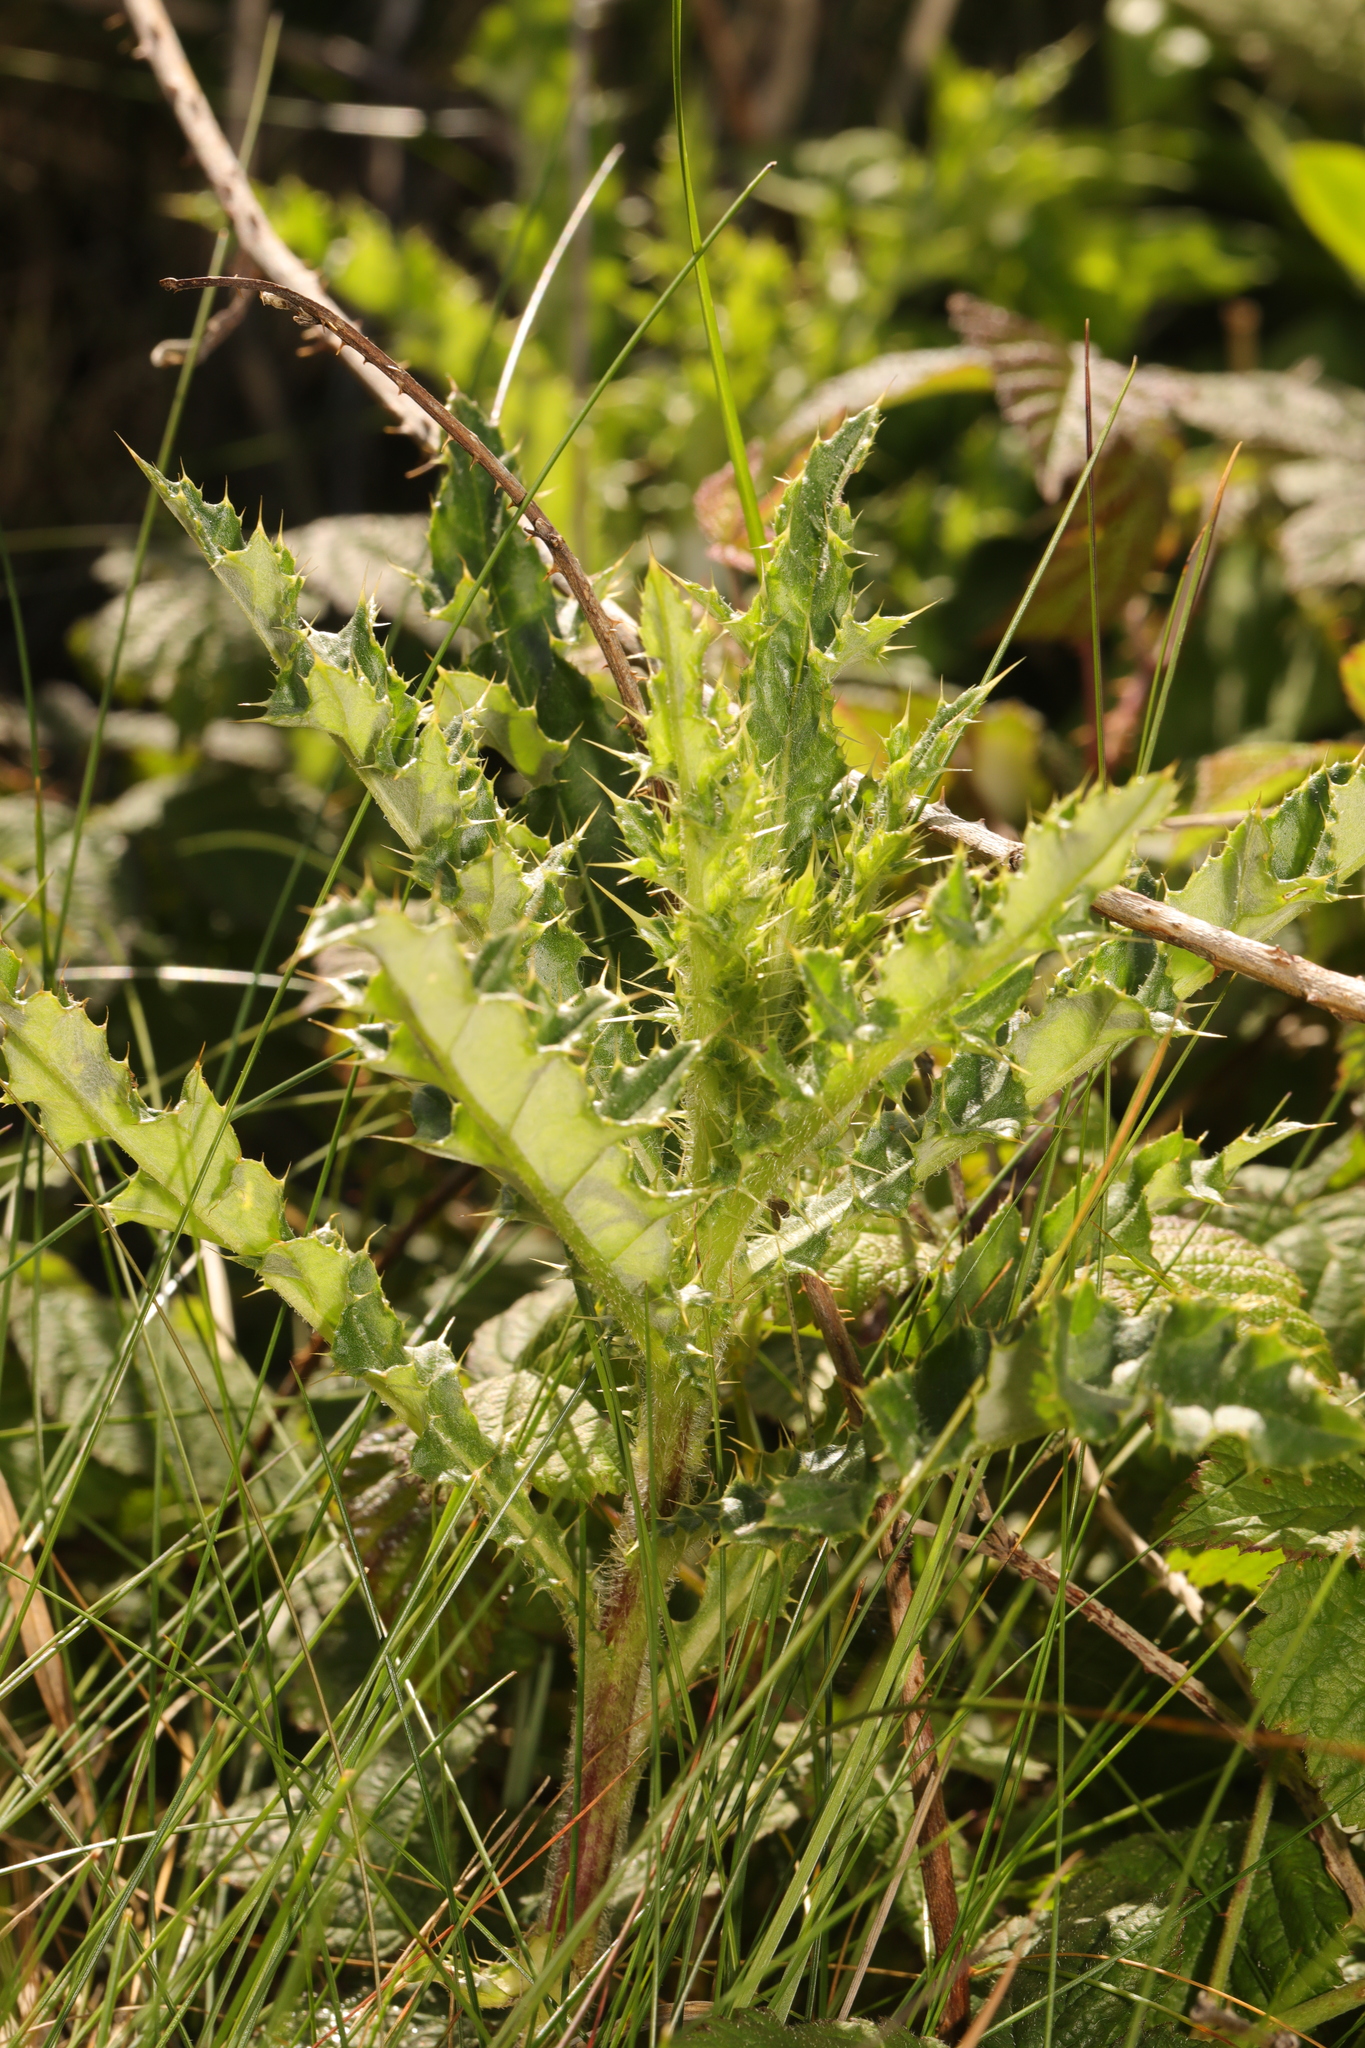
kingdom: Plantae
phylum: Tracheophyta
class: Magnoliopsida
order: Asterales
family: Asteraceae
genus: Cirsium
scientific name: Cirsium arvense
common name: Creeping thistle
